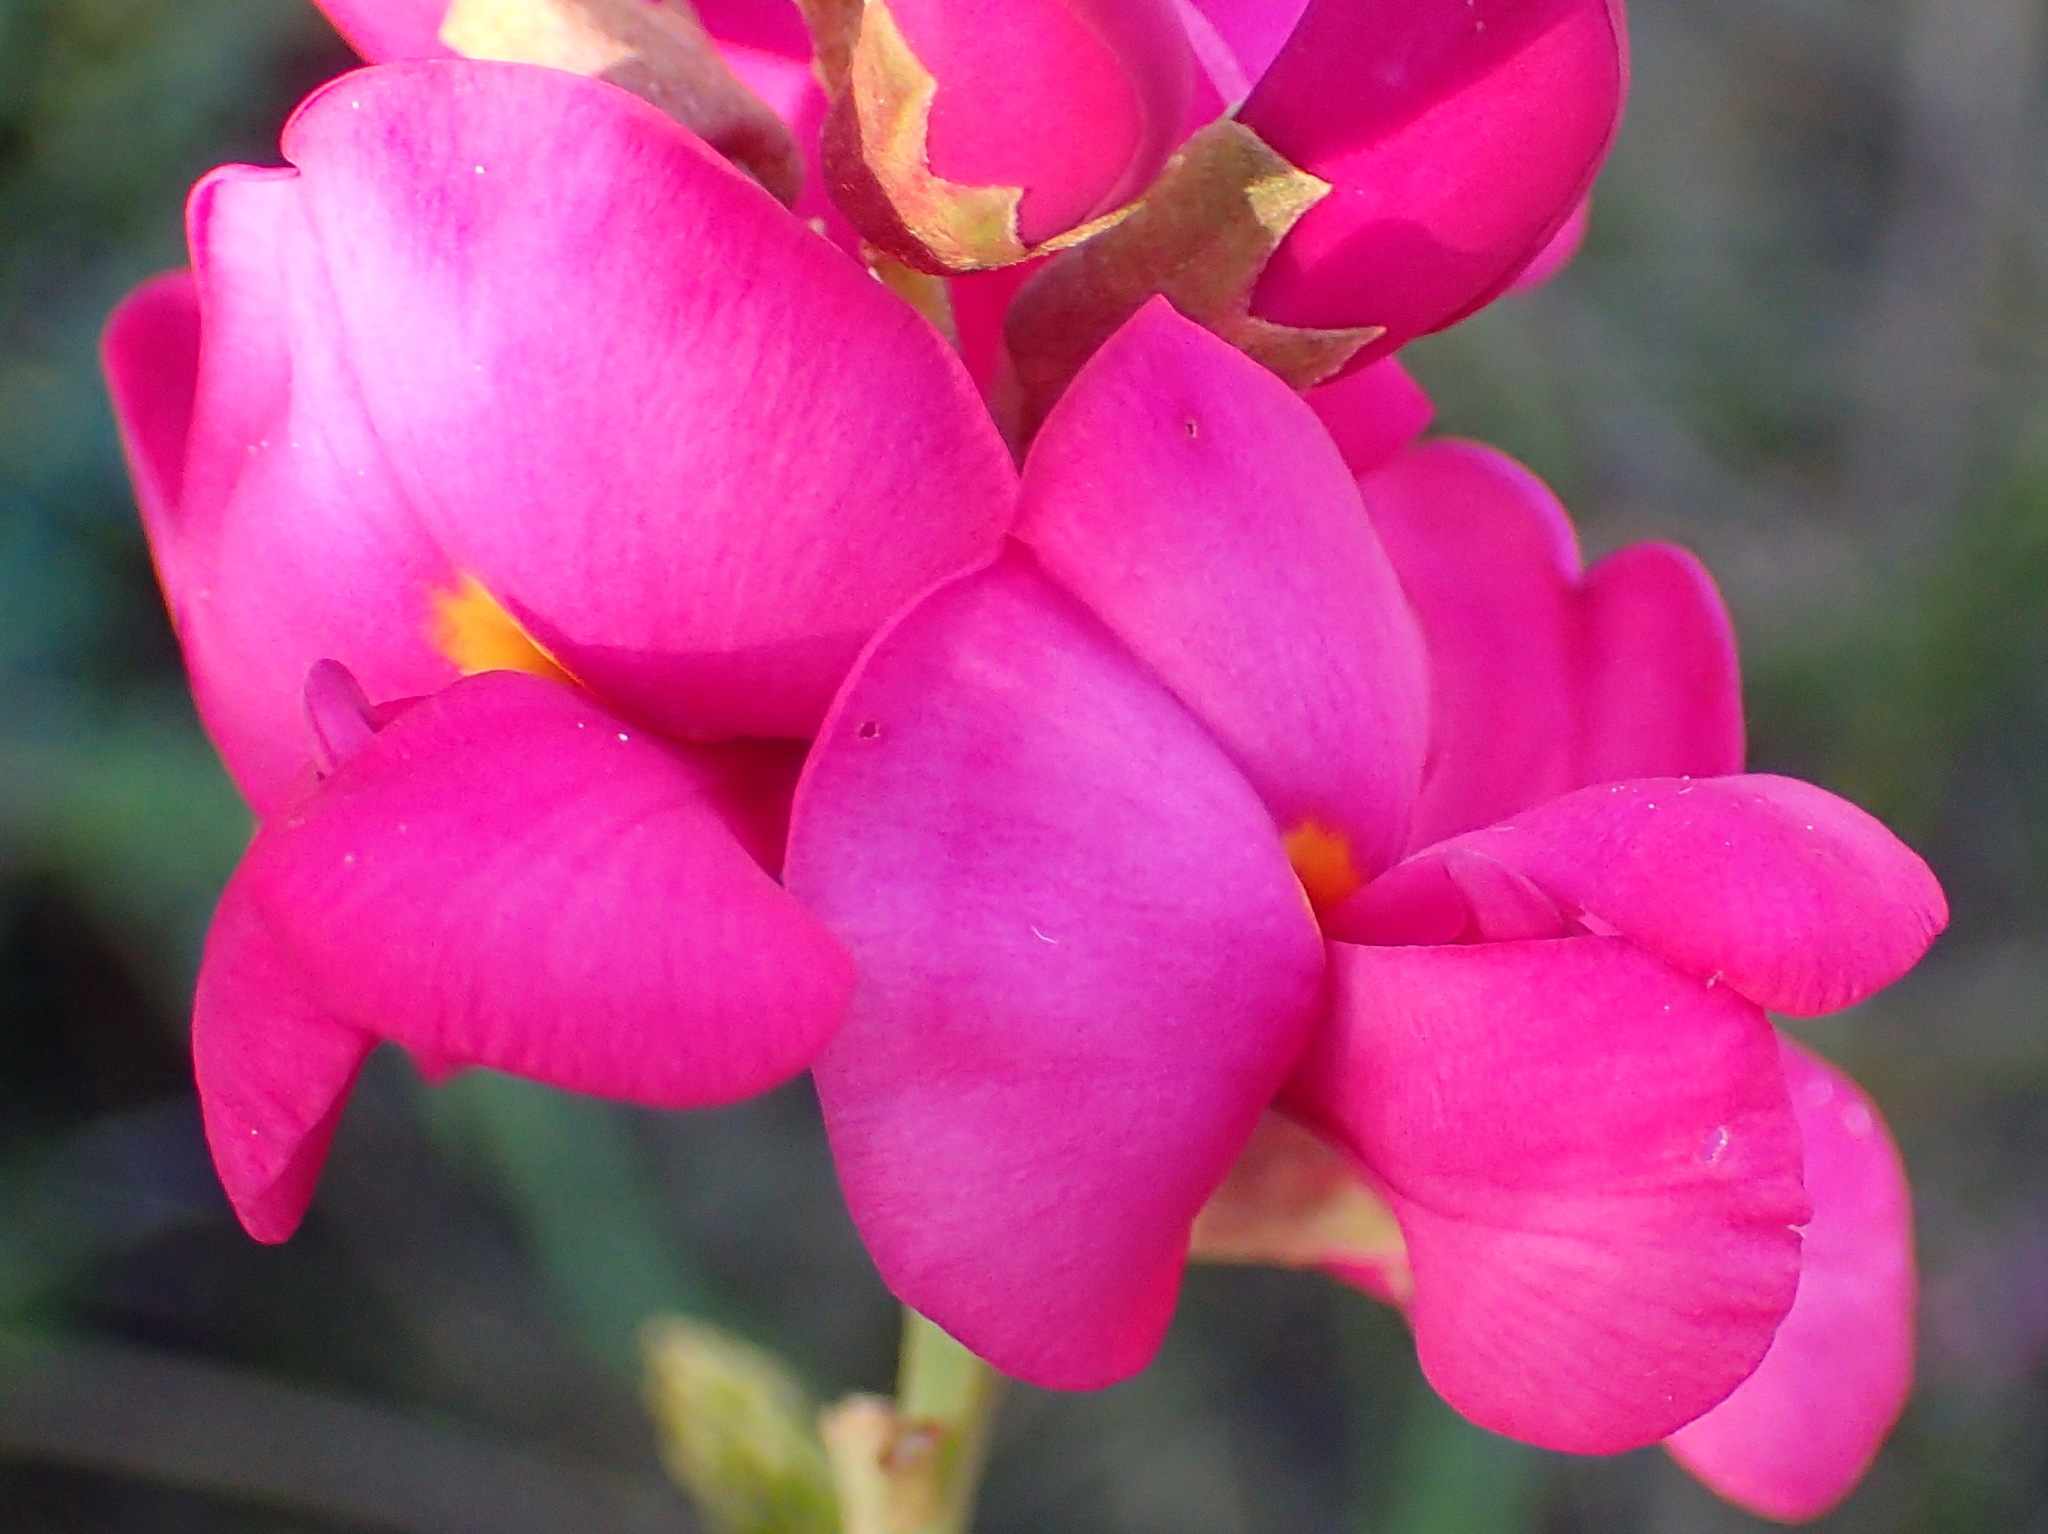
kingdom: Plantae
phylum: Tracheophyta
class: Magnoliopsida
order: Fabales
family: Fabaceae
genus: Hypocalyptus
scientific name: Hypocalyptus coluteoides
